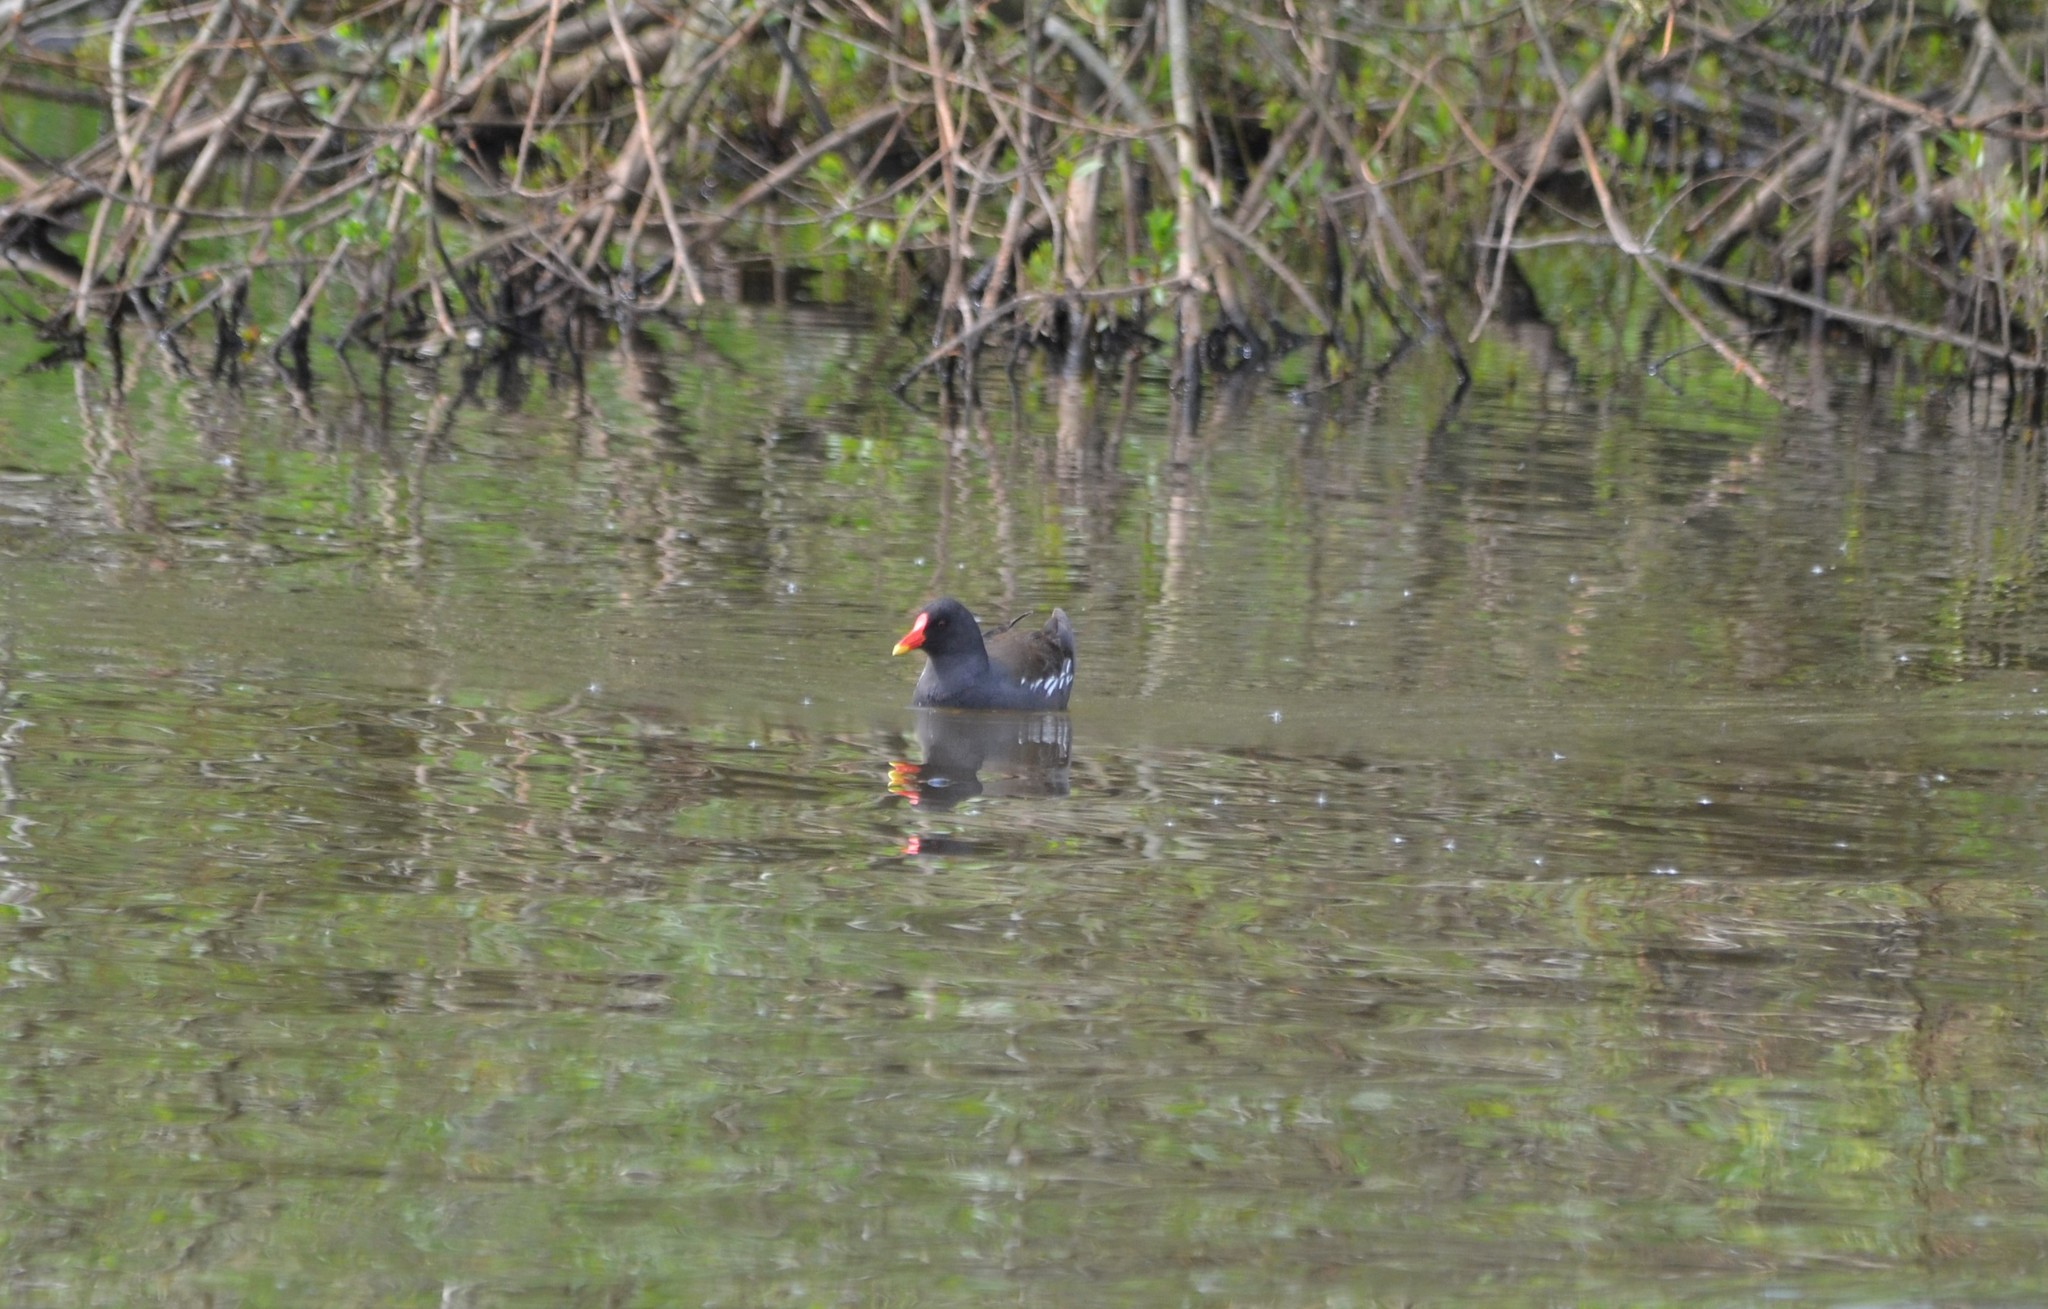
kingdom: Animalia
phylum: Chordata
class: Aves
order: Gruiformes
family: Rallidae
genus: Gallinula
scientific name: Gallinula chloropus
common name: Common moorhen
